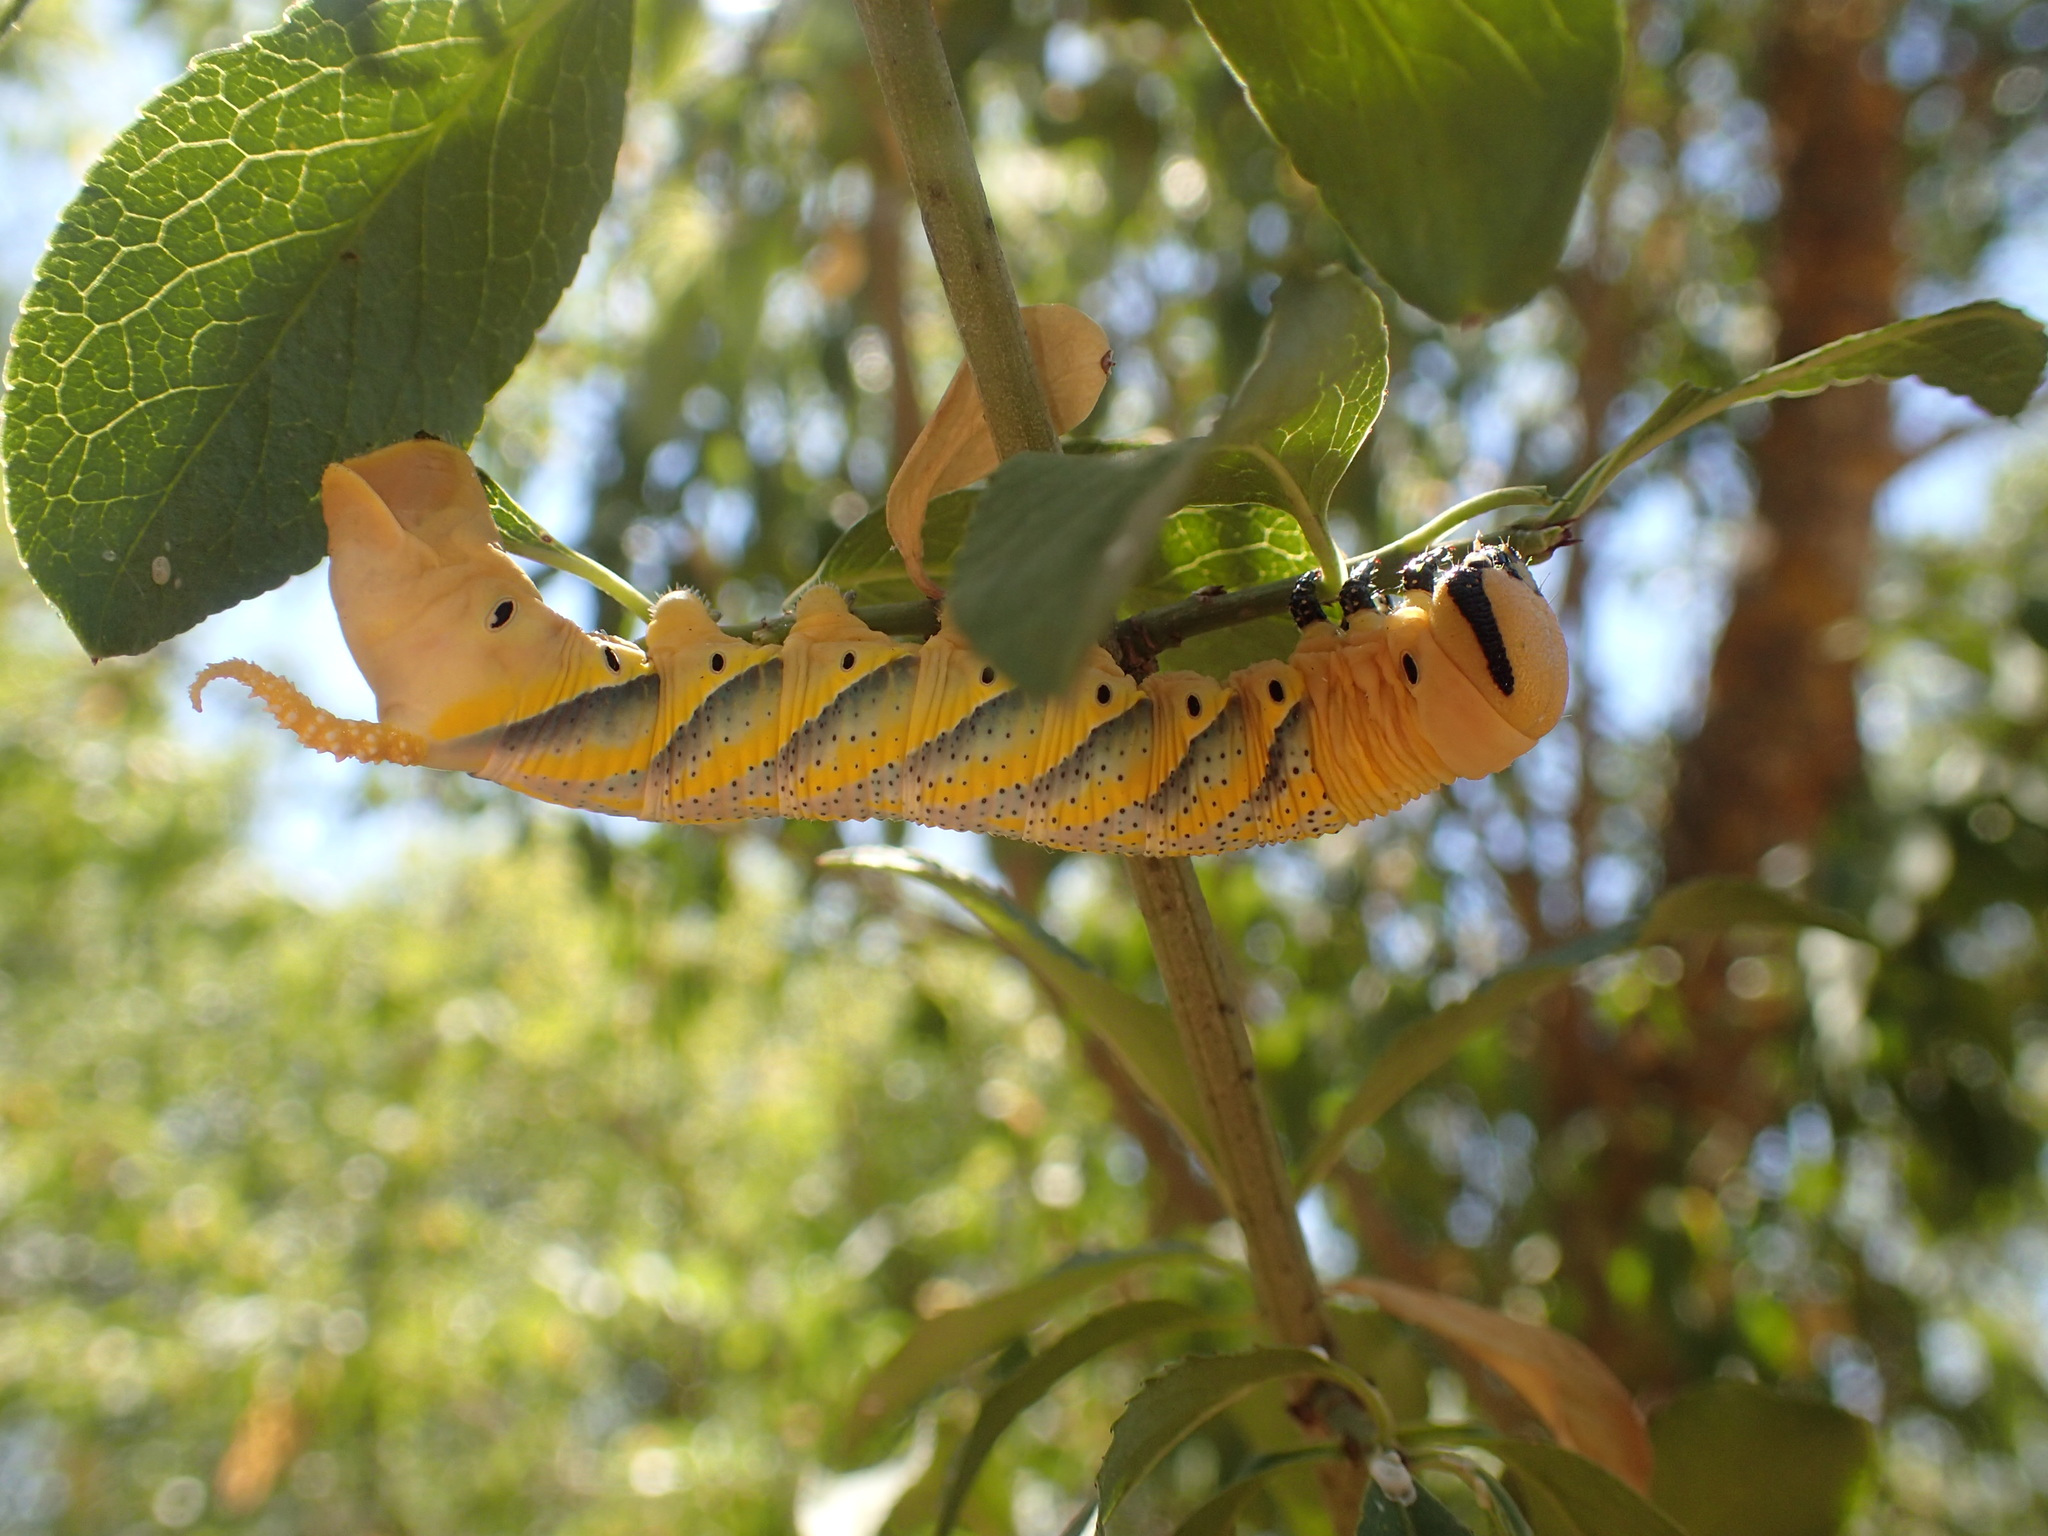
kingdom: Animalia
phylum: Arthropoda
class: Insecta
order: Lepidoptera
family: Sphingidae
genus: Acherontia
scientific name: Acherontia atropos
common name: Death's-head hawk moth
